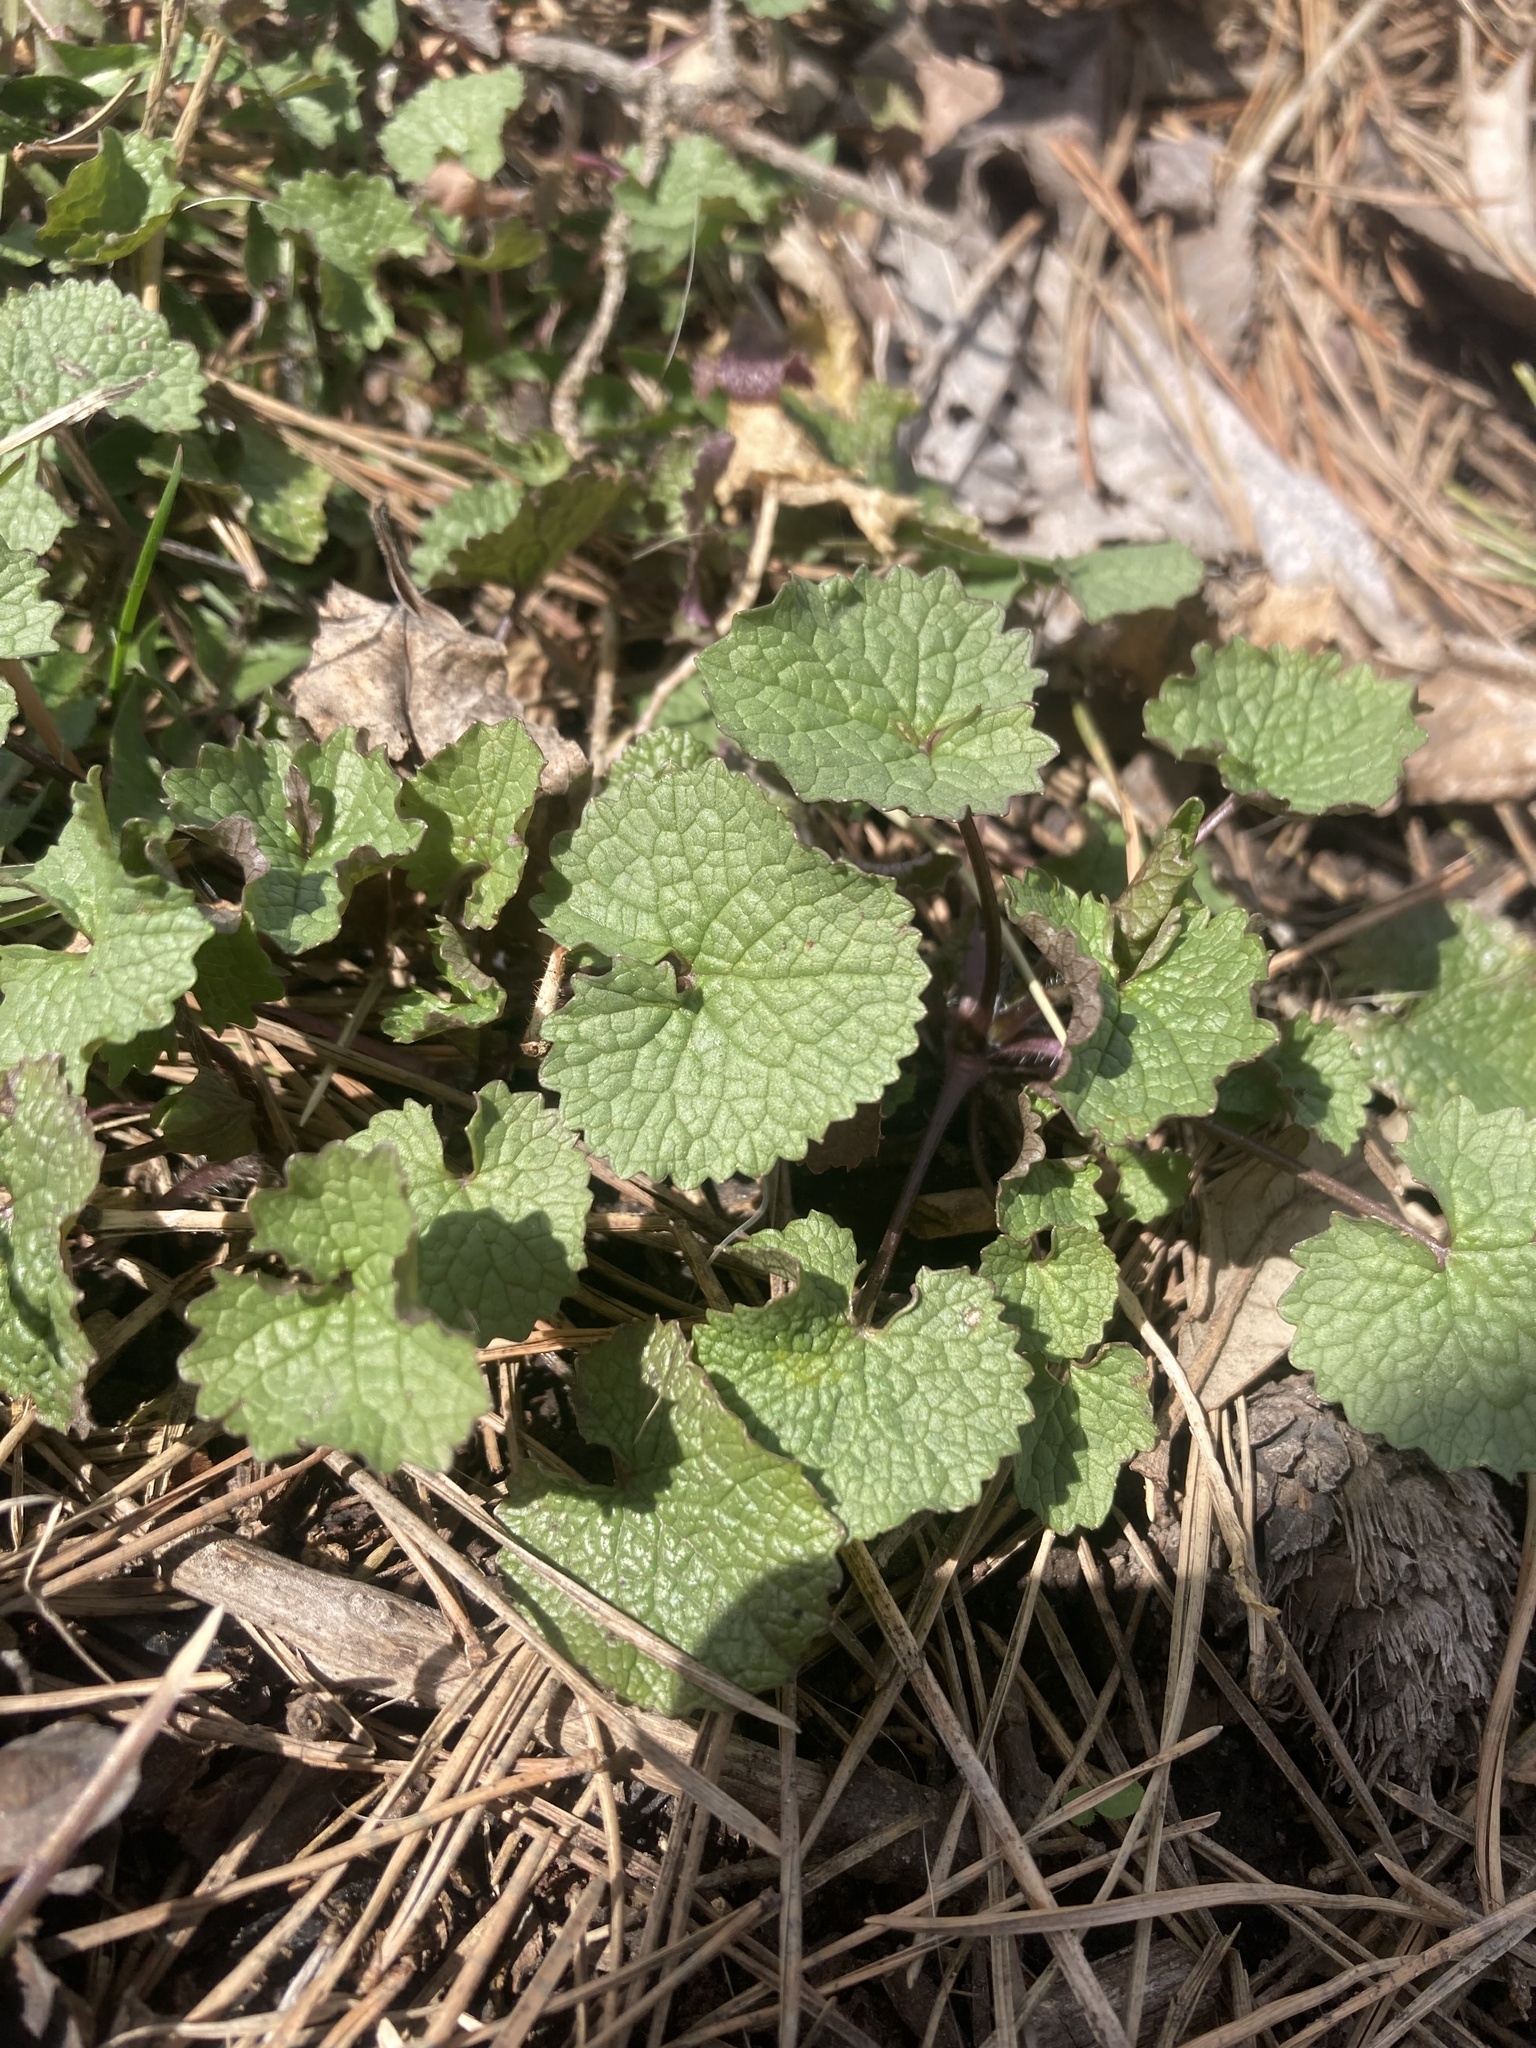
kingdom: Plantae
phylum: Tracheophyta
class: Magnoliopsida
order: Brassicales
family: Brassicaceae
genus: Alliaria
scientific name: Alliaria petiolata
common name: Garlic mustard
